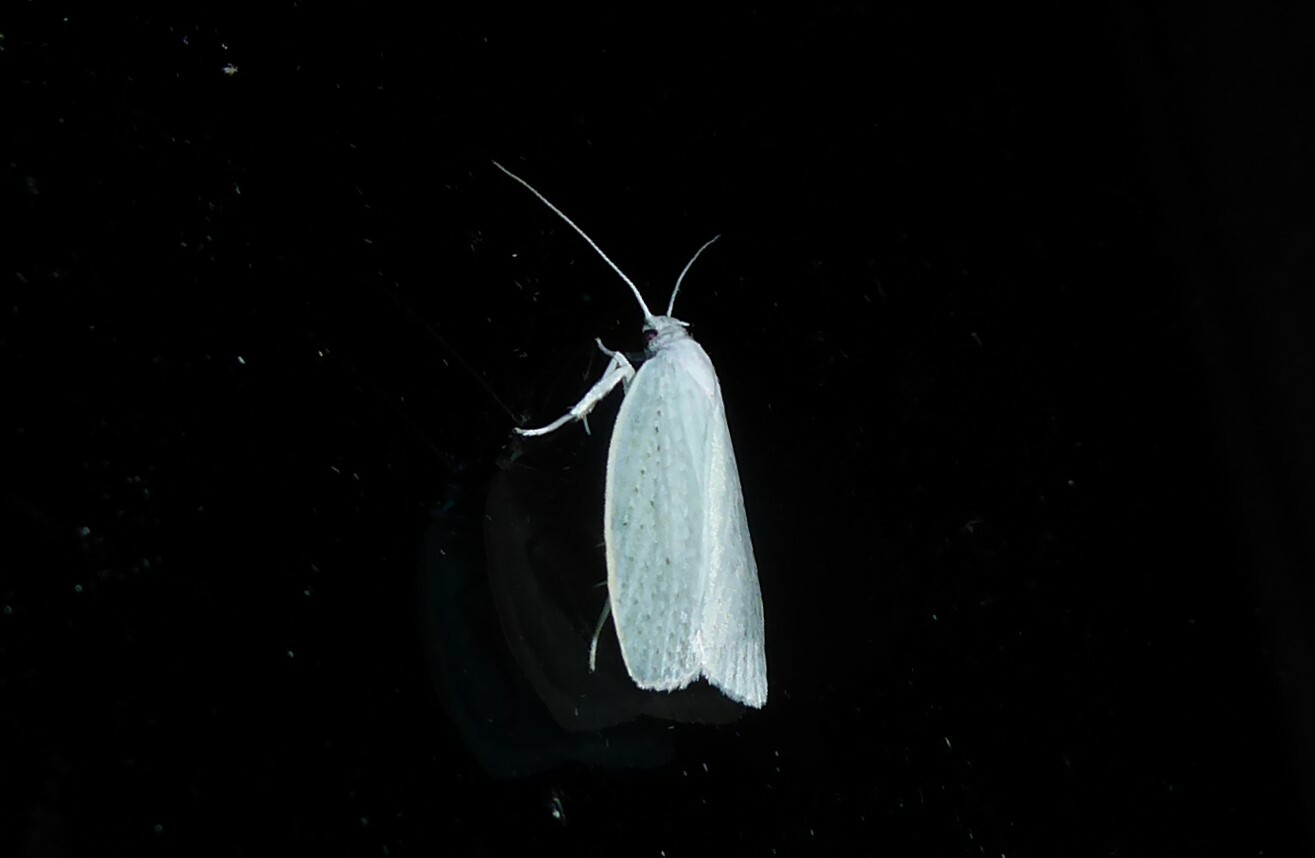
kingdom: Animalia
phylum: Arthropoda
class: Insecta
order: Lepidoptera
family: Oecophoridae
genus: Nymphostola
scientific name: Nymphostola galactina
